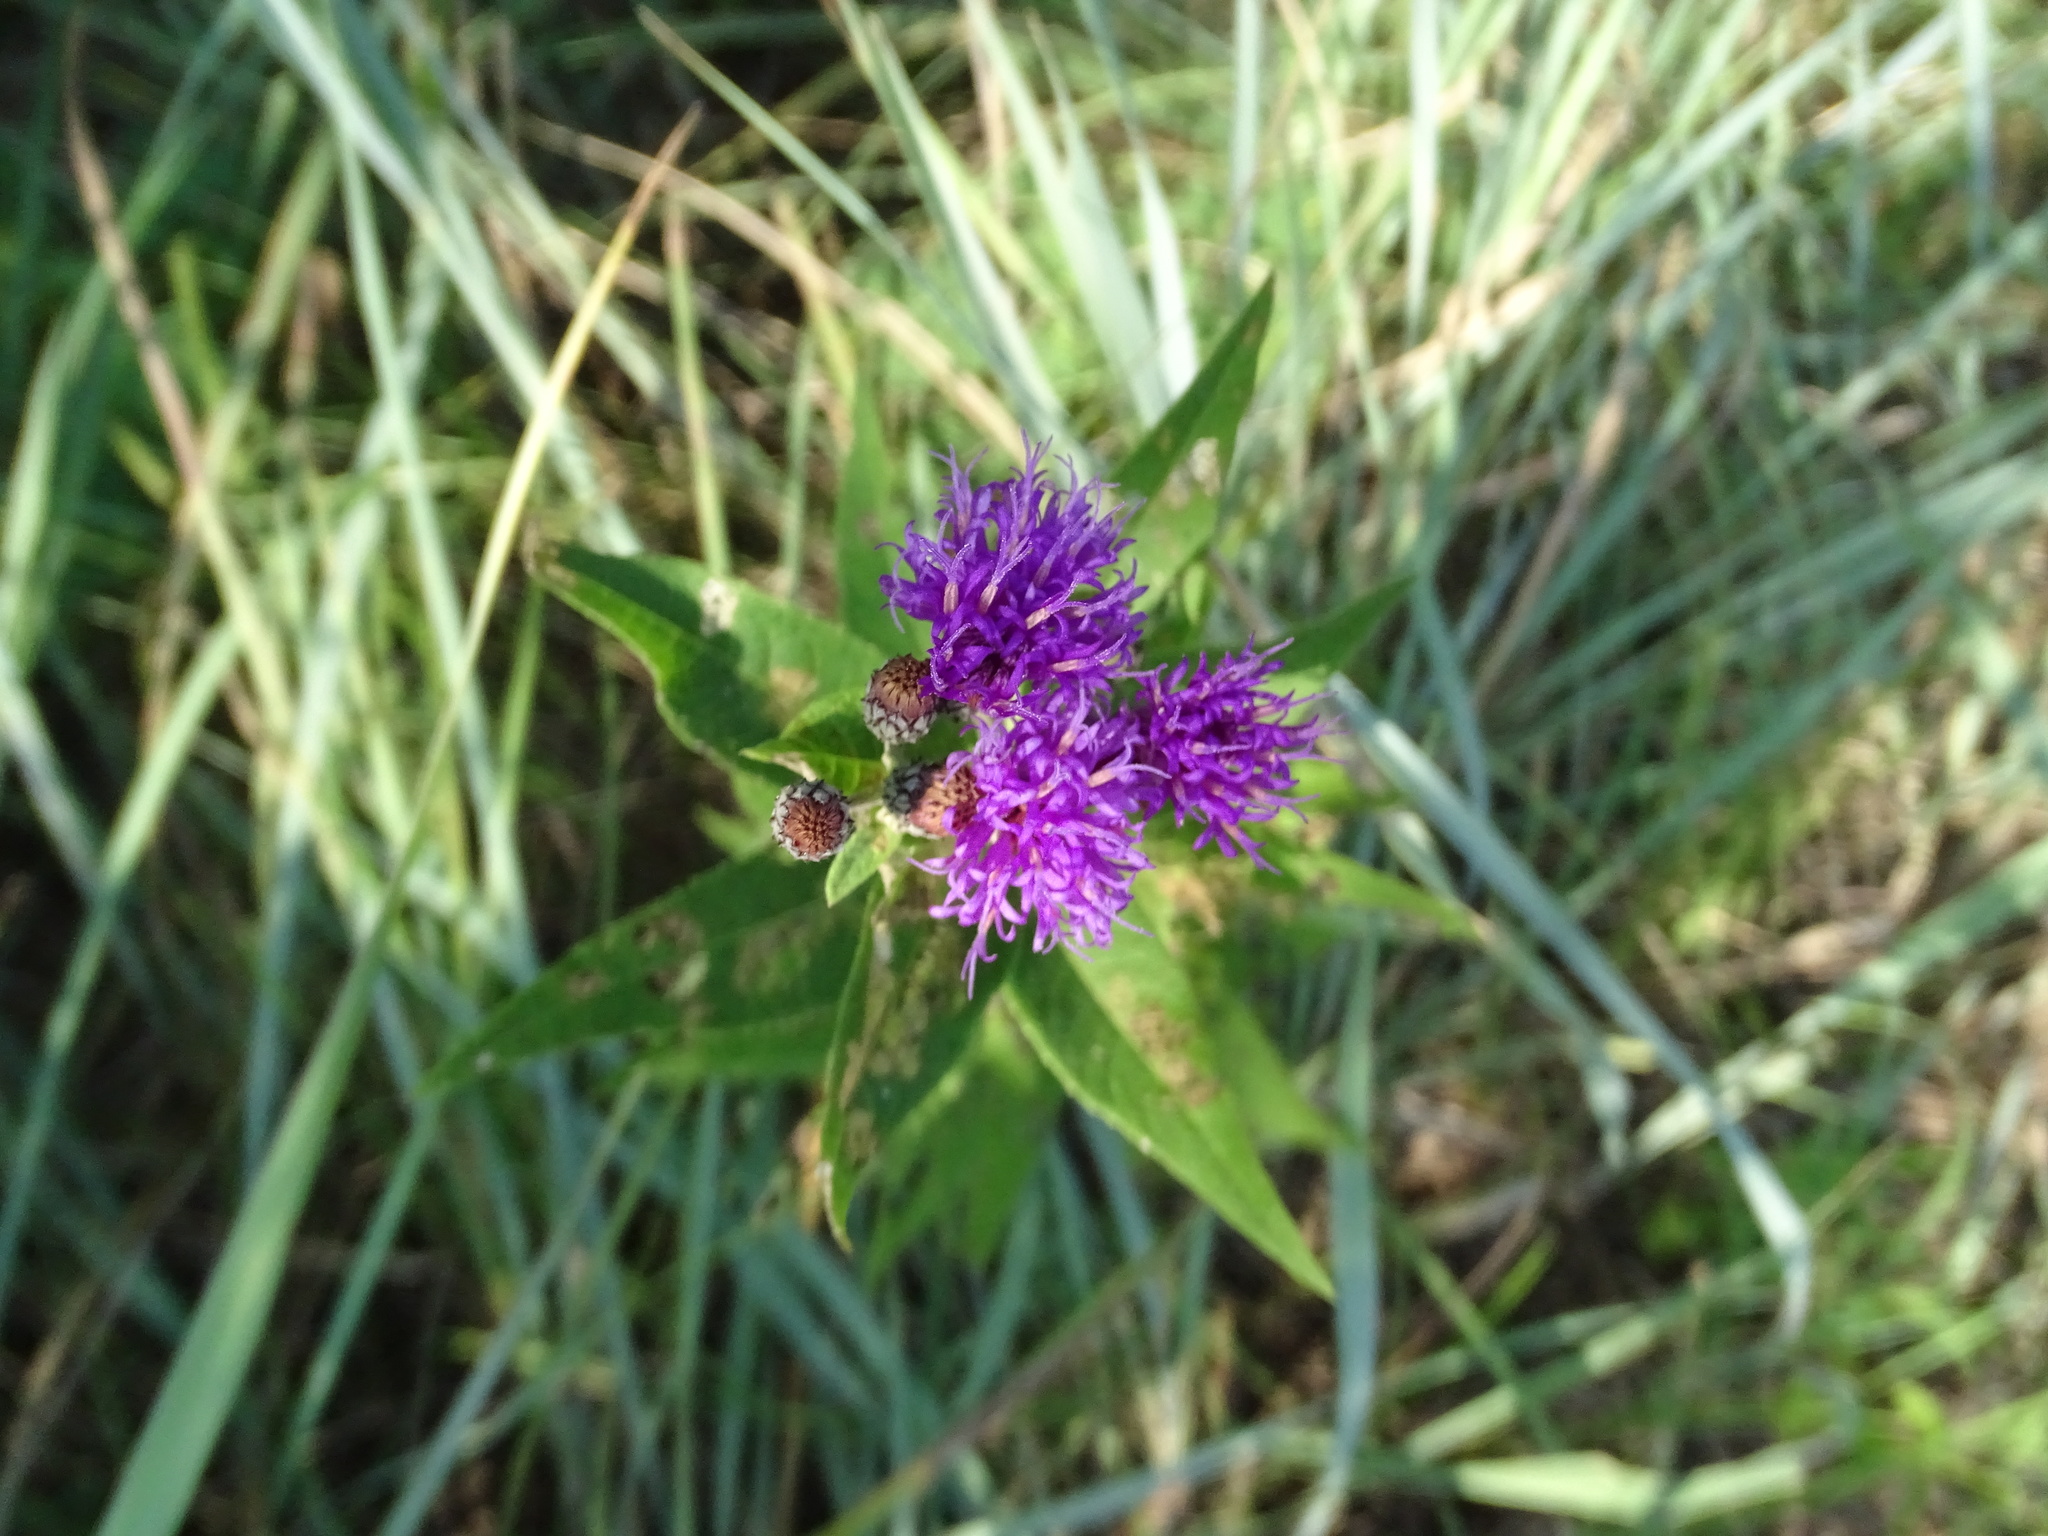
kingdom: Plantae
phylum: Tracheophyta
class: Magnoliopsida
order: Asterales
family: Asteraceae
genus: Vernonia
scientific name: Vernonia baldwinii
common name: Western ironweed
